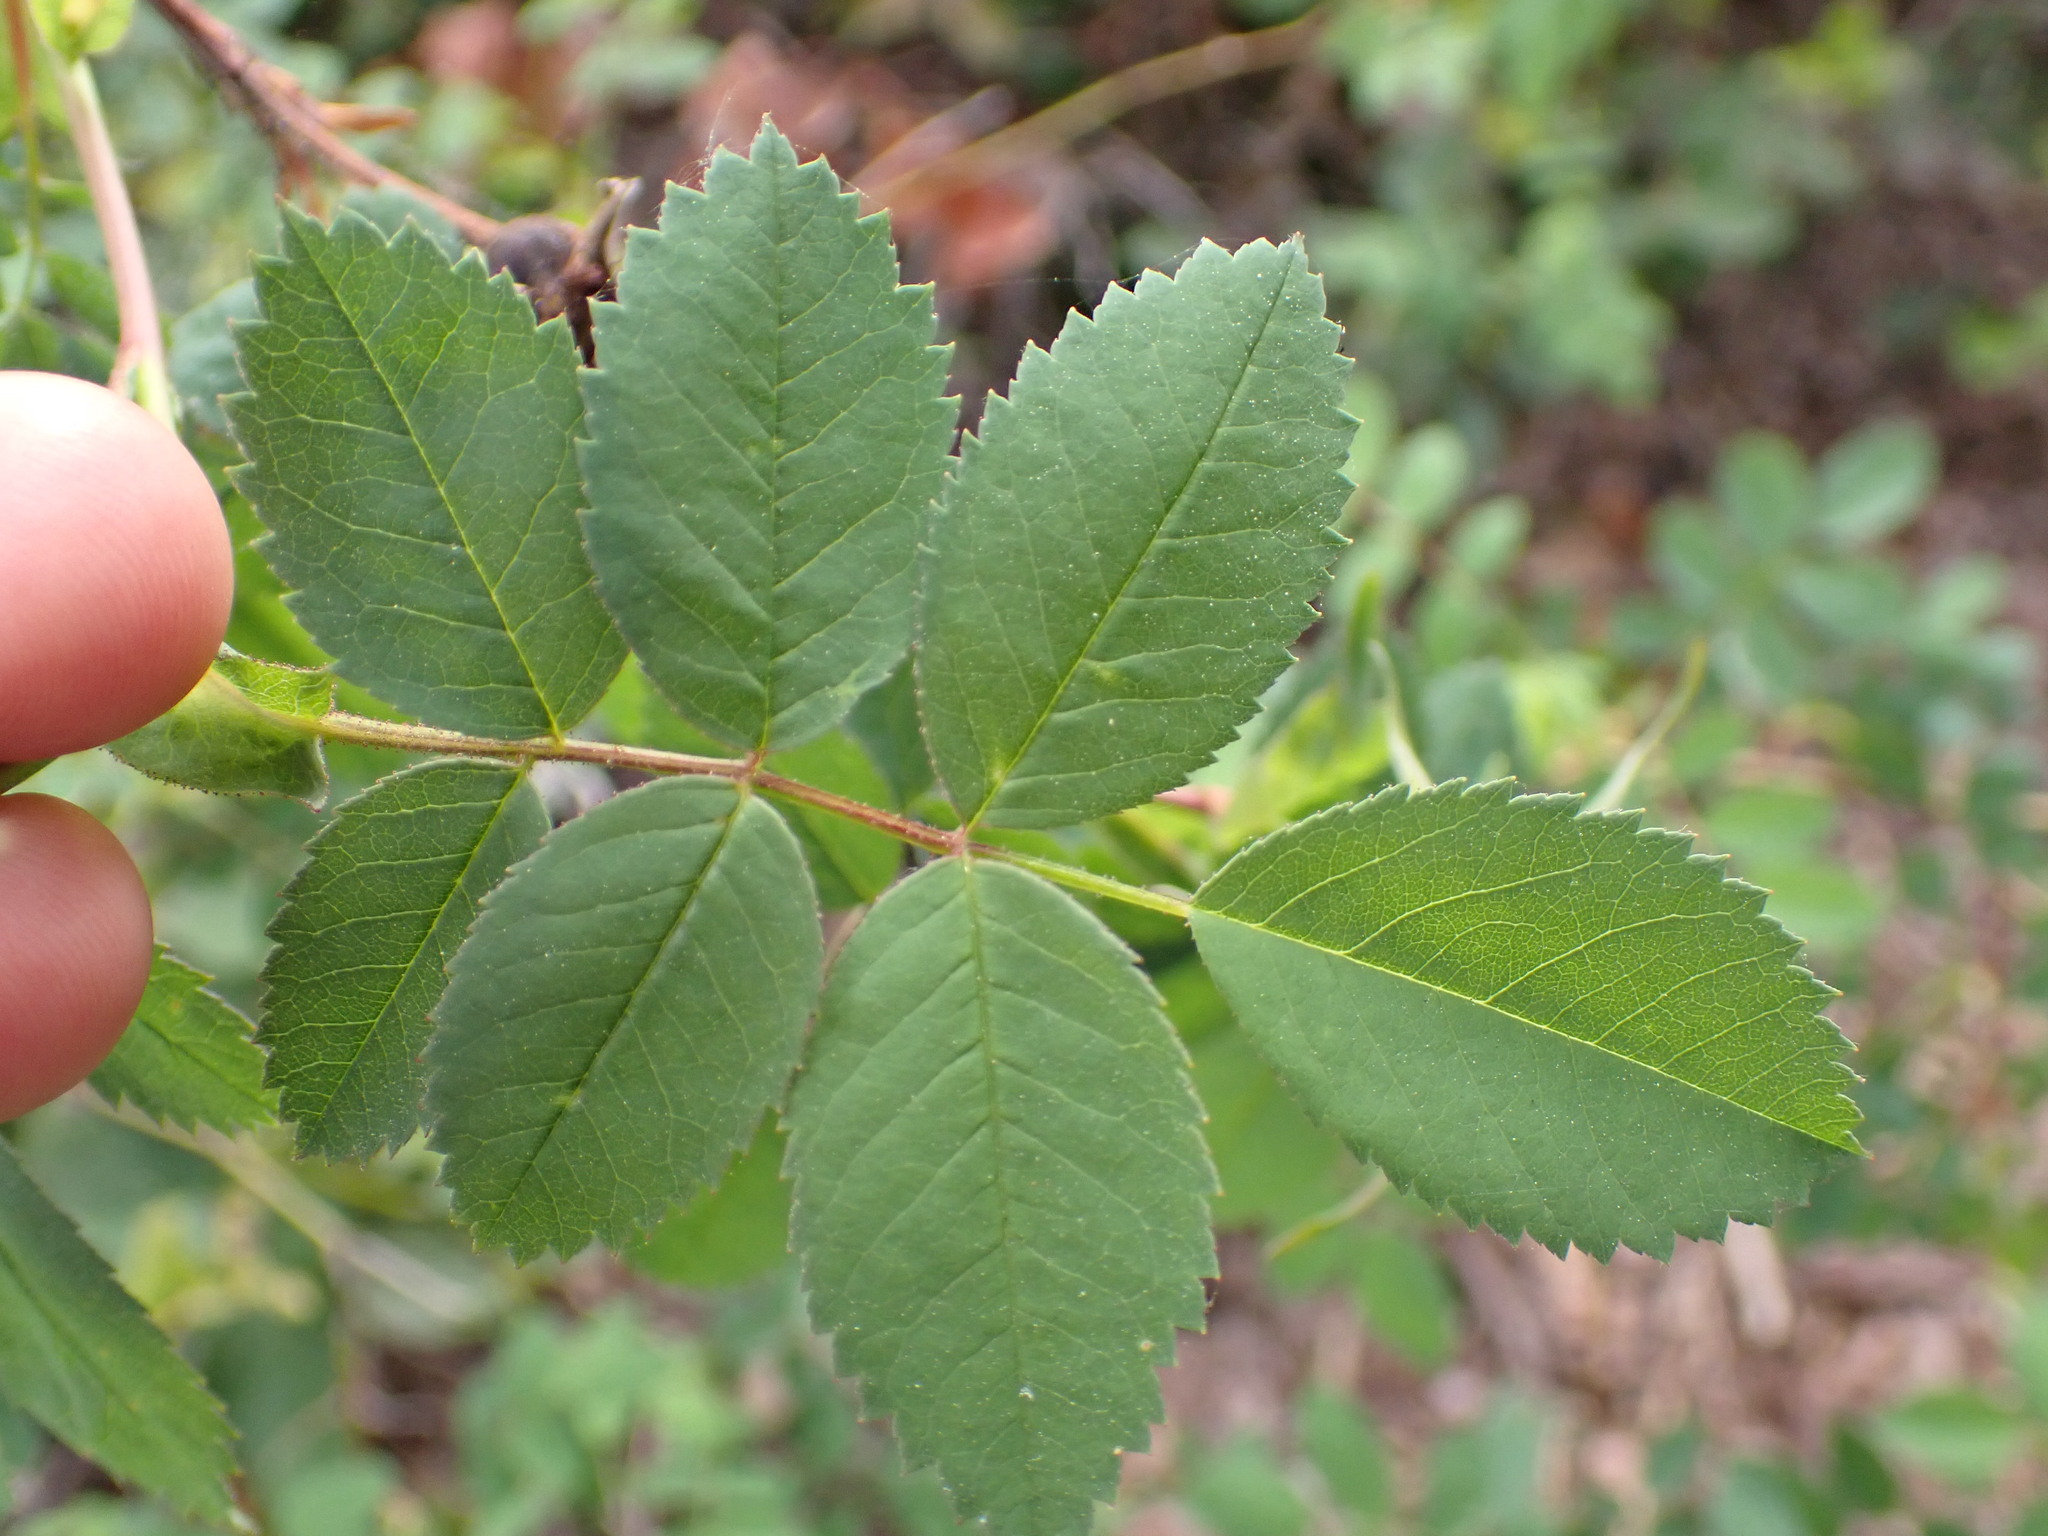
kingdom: Plantae
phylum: Tracheophyta
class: Magnoliopsida
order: Rosales
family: Rosaceae
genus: Rosa
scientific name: Rosa nutkana
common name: Nootka rose
